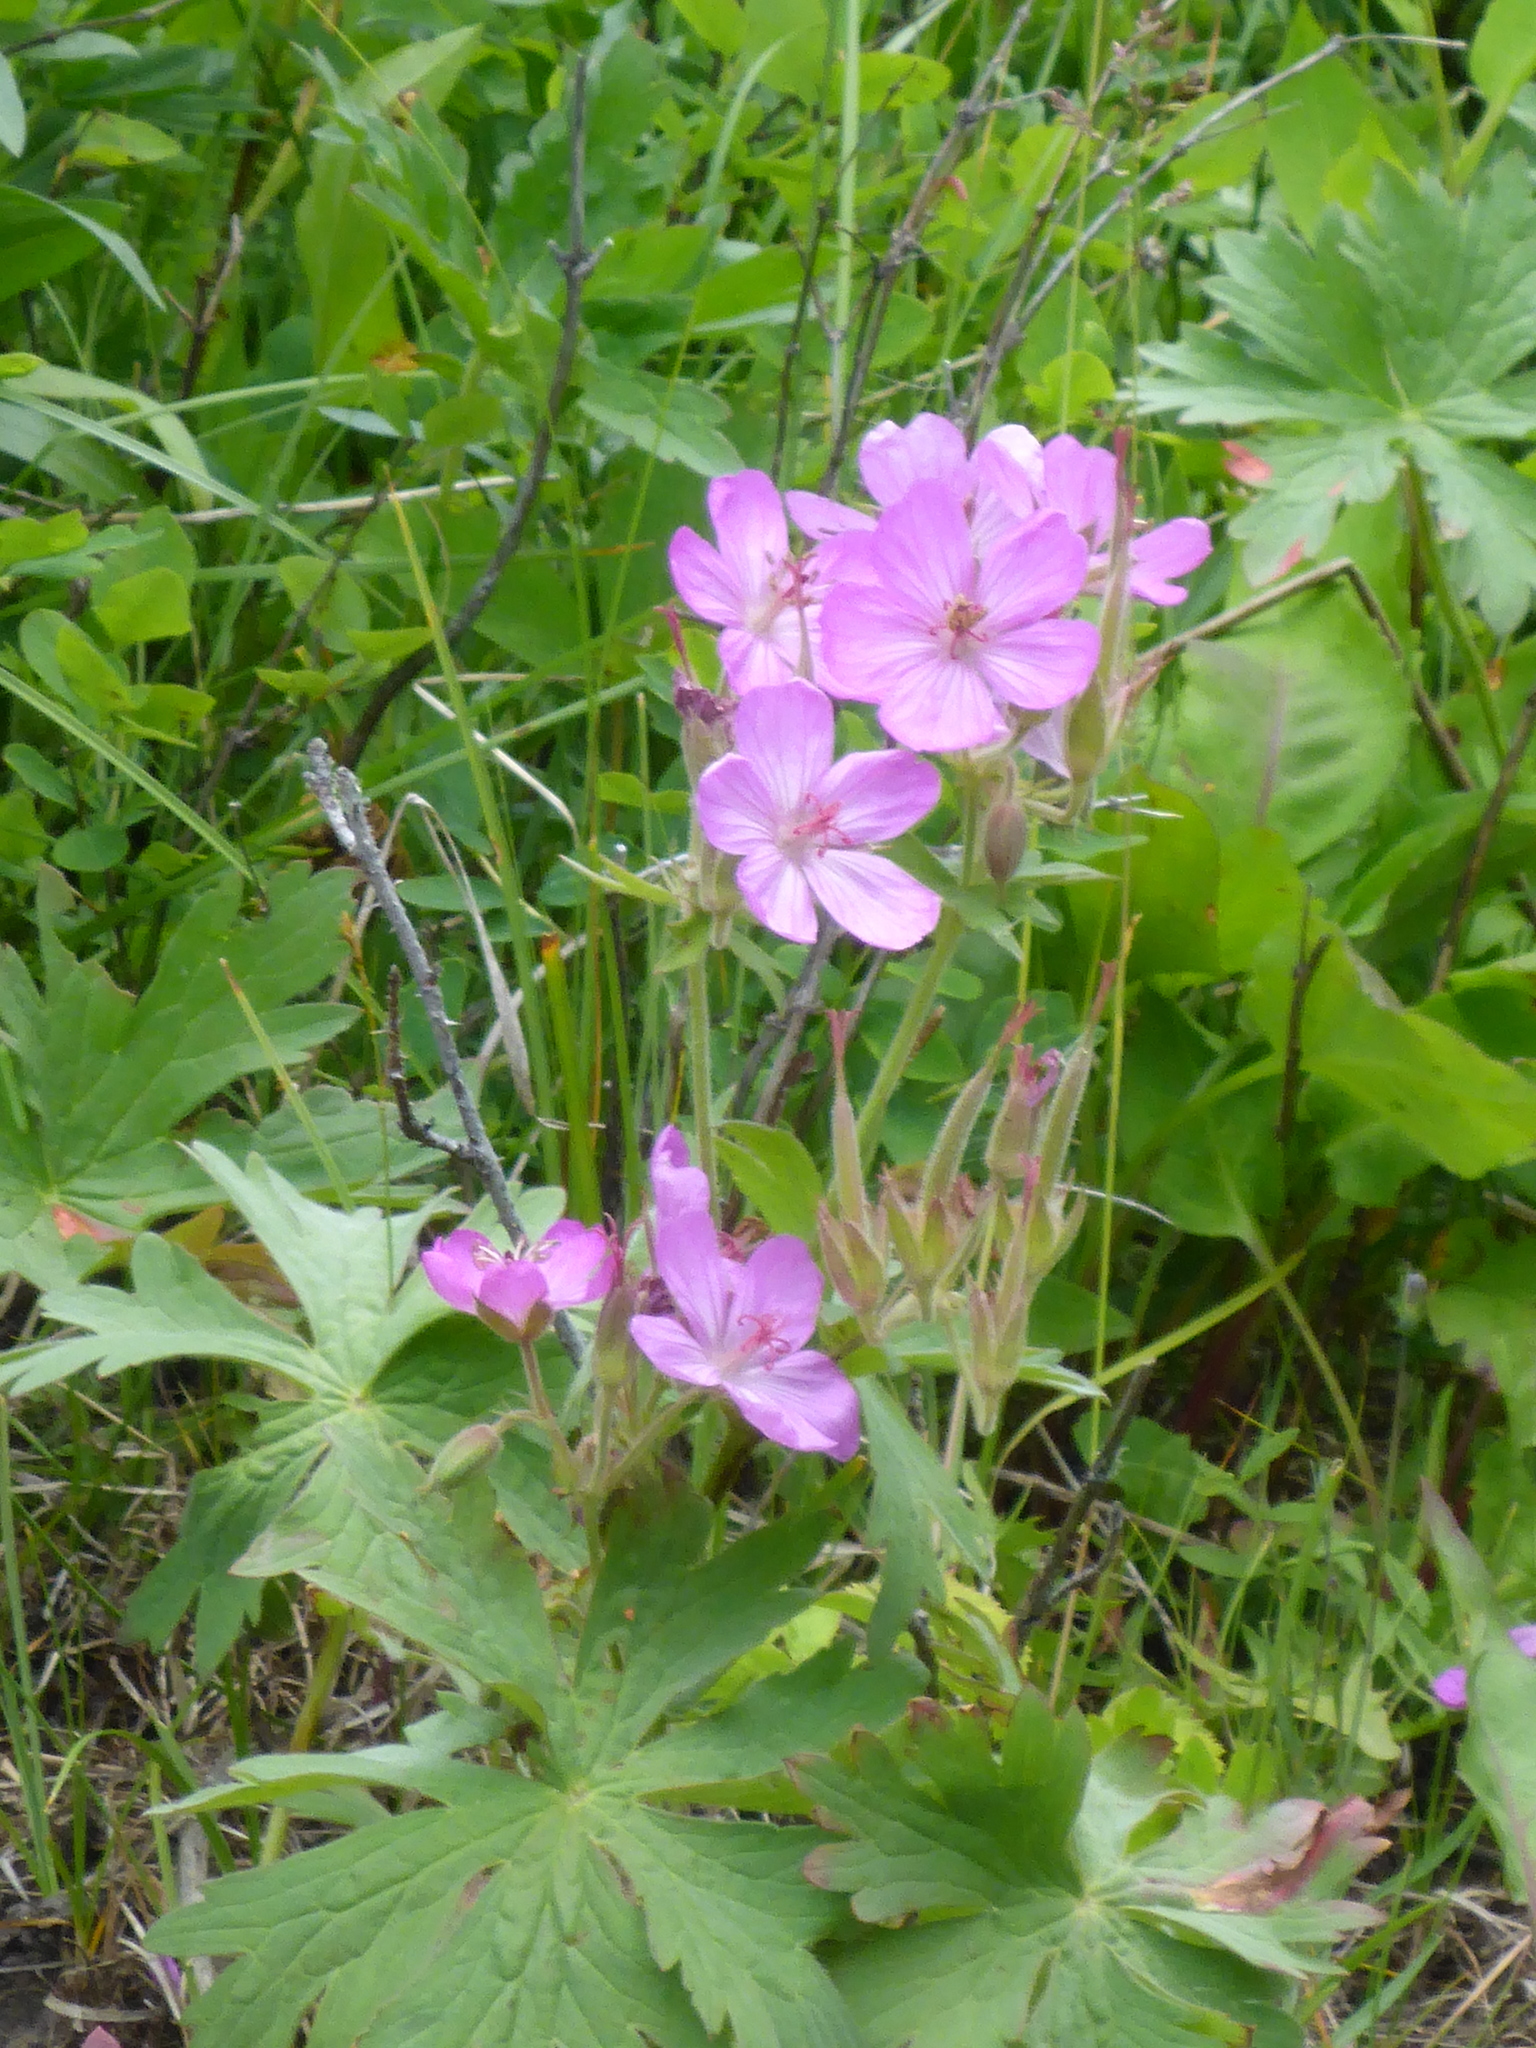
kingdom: Plantae
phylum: Tracheophyta
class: Magnoliopsida
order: Geraniales
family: Geraniaceae
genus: Geranium
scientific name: Geranium viscosissimum
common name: Purple geranium
